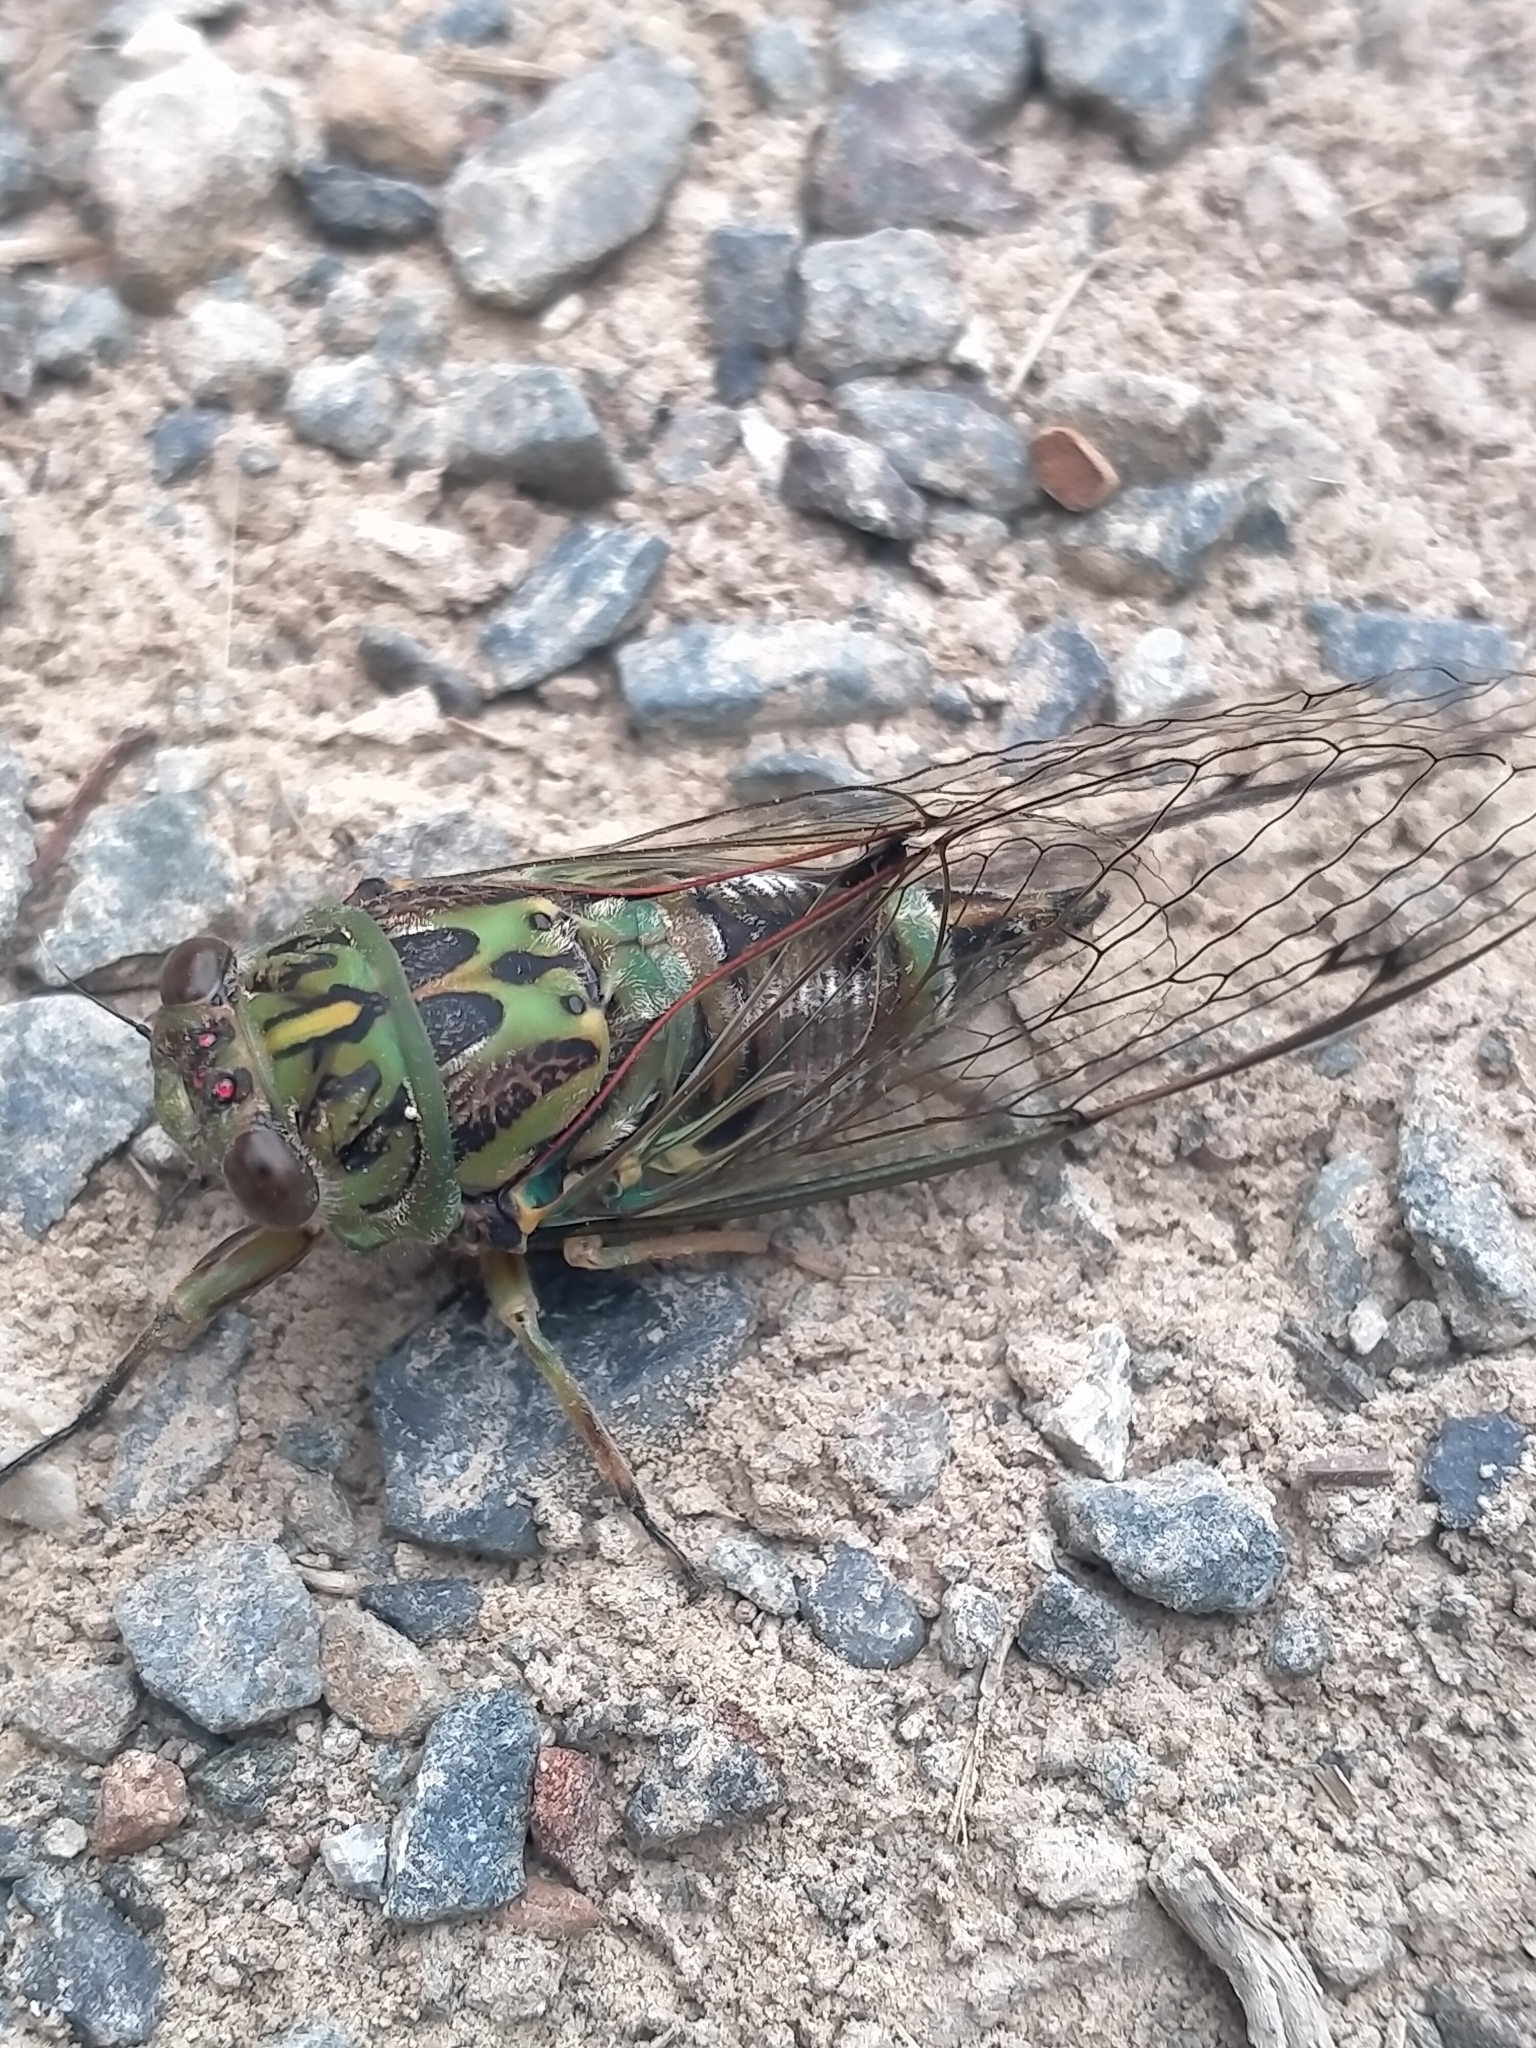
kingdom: Animalia
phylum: Arthropoda
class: Insecta
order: Hemiptera
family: Cicadidae
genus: Amphipsalta
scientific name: Amphipsalta zelandica
